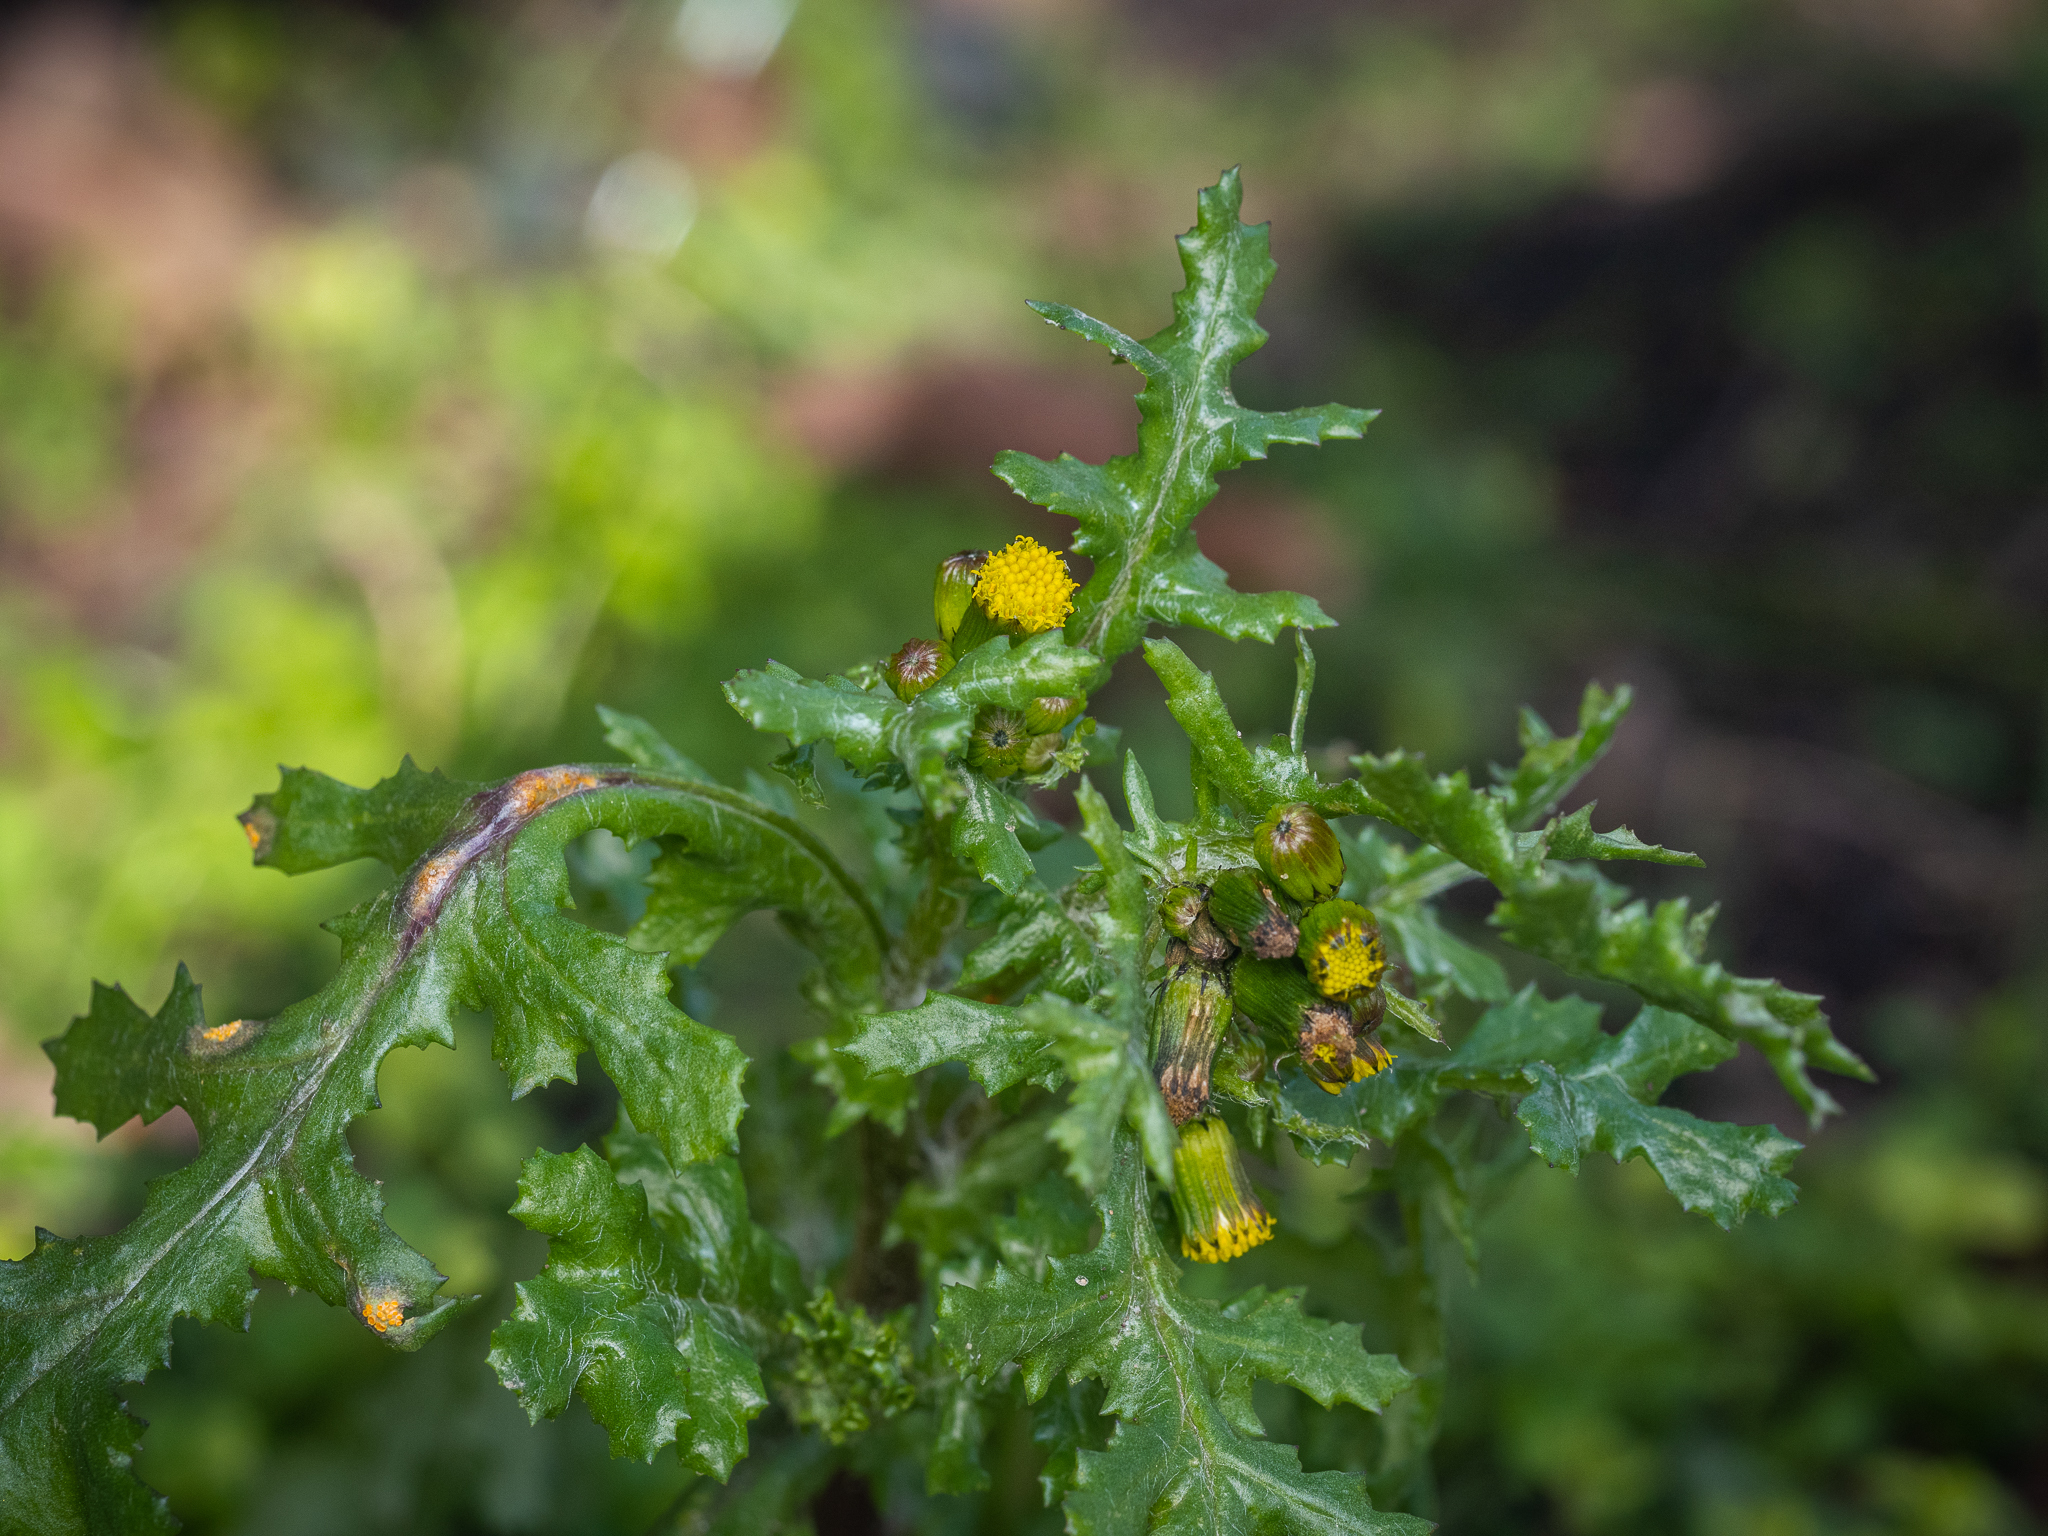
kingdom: Plantae
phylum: Tracheophyta
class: Magnoliopsida
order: Asterales
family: Asteraceae
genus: Senecio
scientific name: Senecio vulgaris
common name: Old-man-in-the-spring
